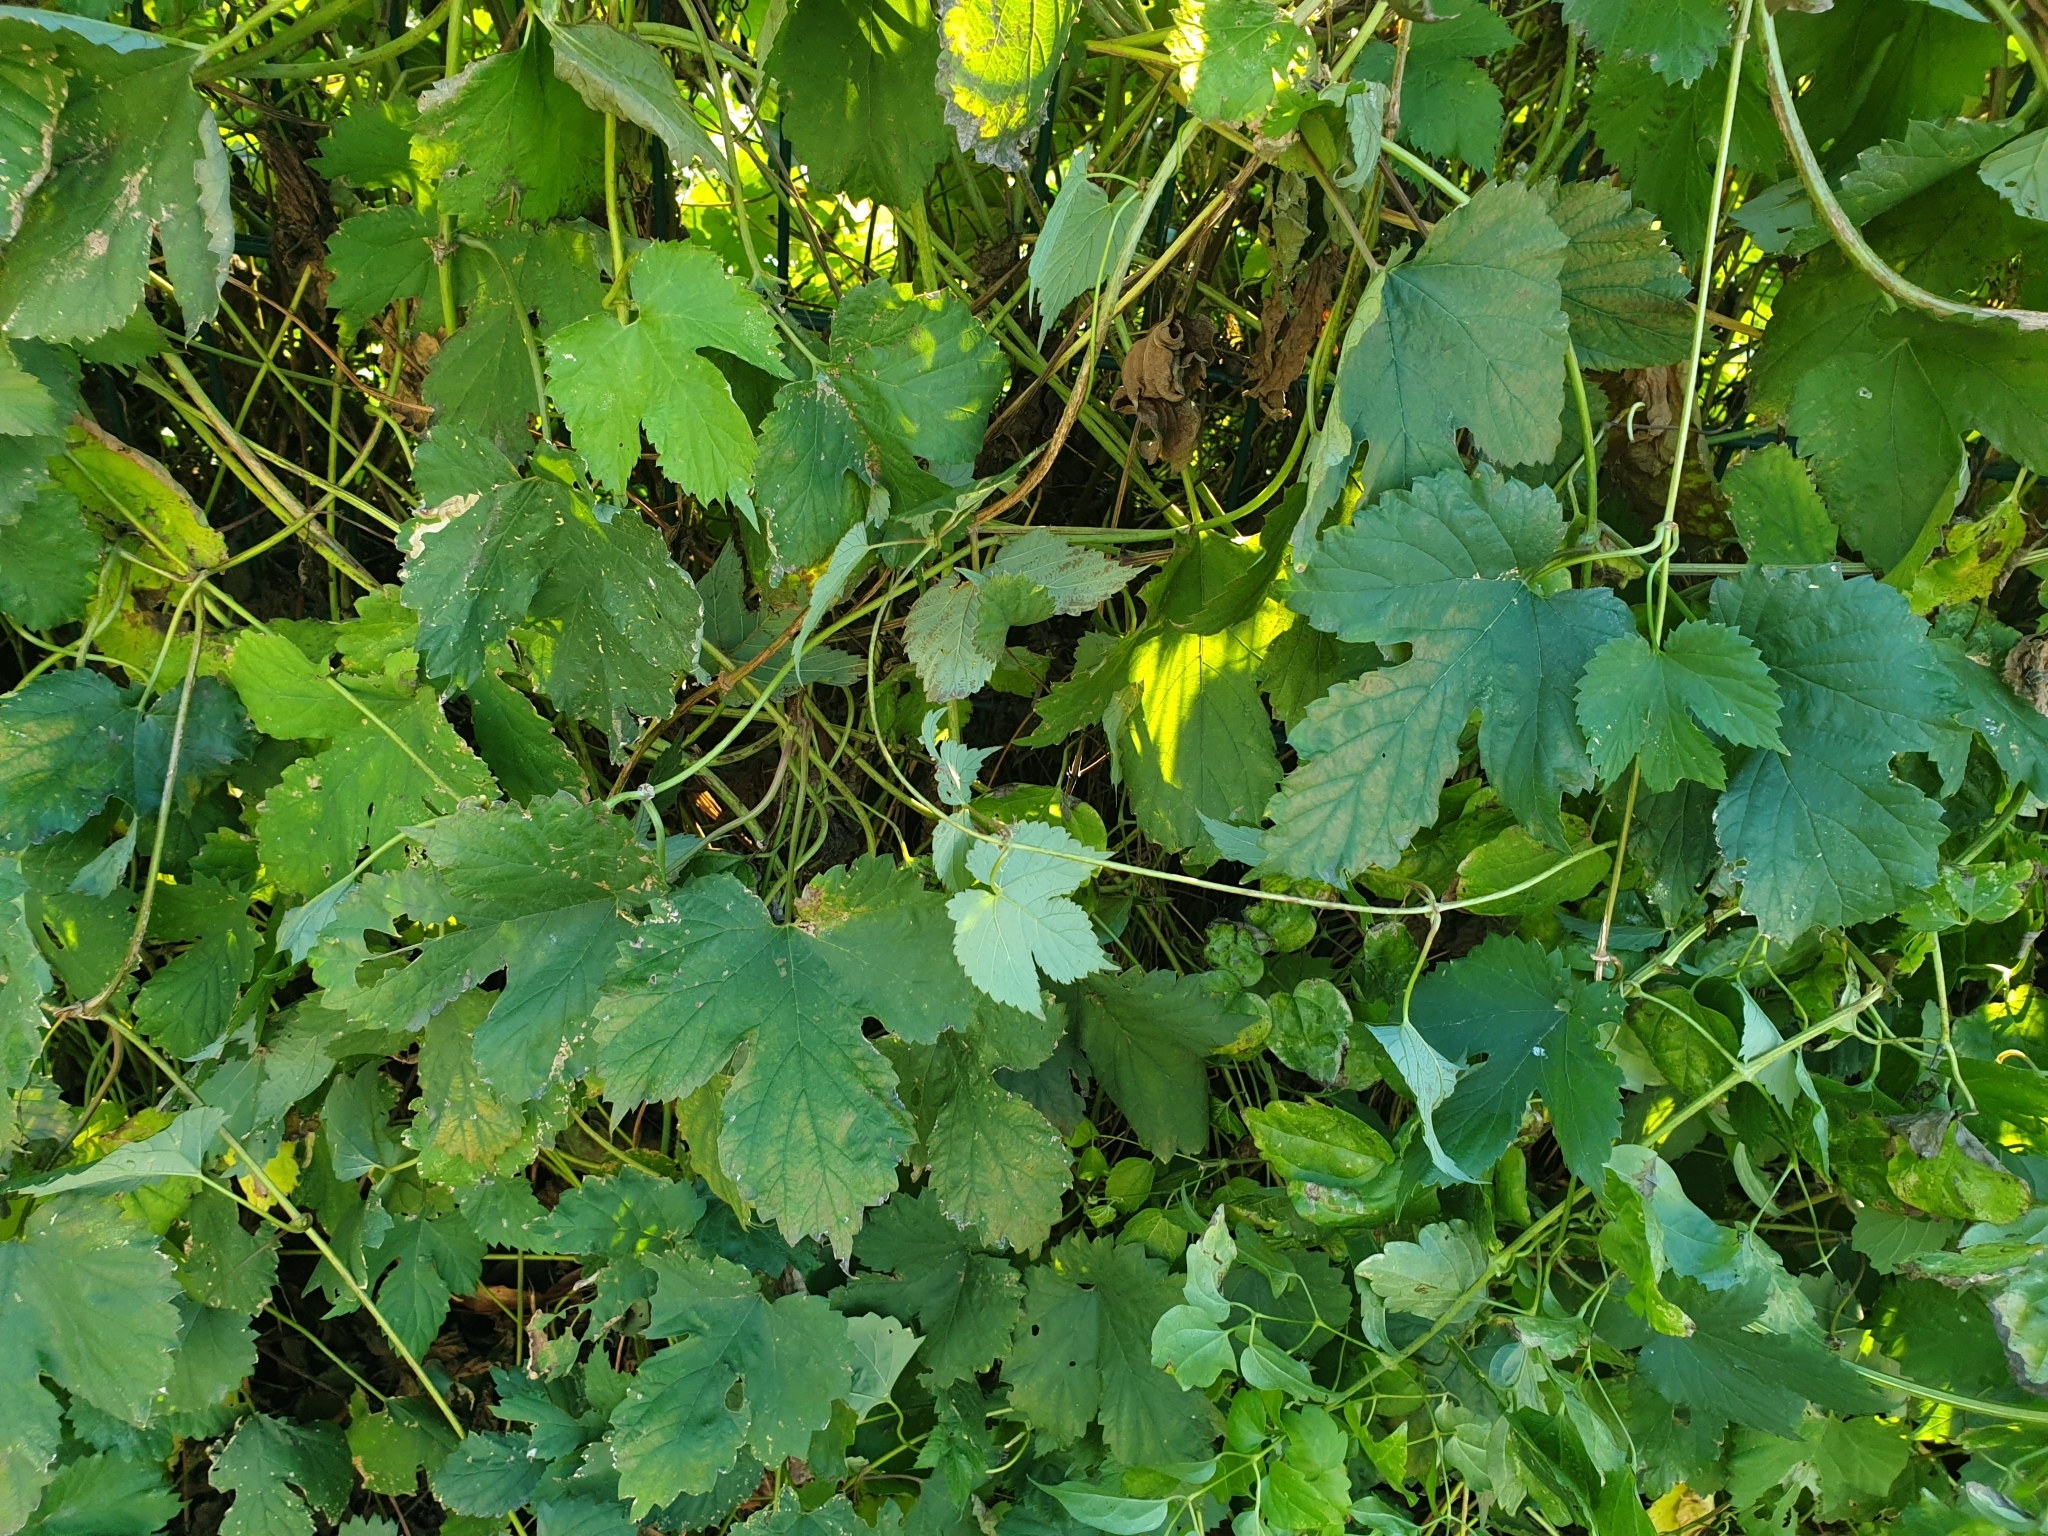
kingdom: Plantae
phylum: Tracheophyta
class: Magnoliopsida
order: Rosales
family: Cannabaceae
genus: Humulus
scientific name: Humulus lupulus
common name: Hop
